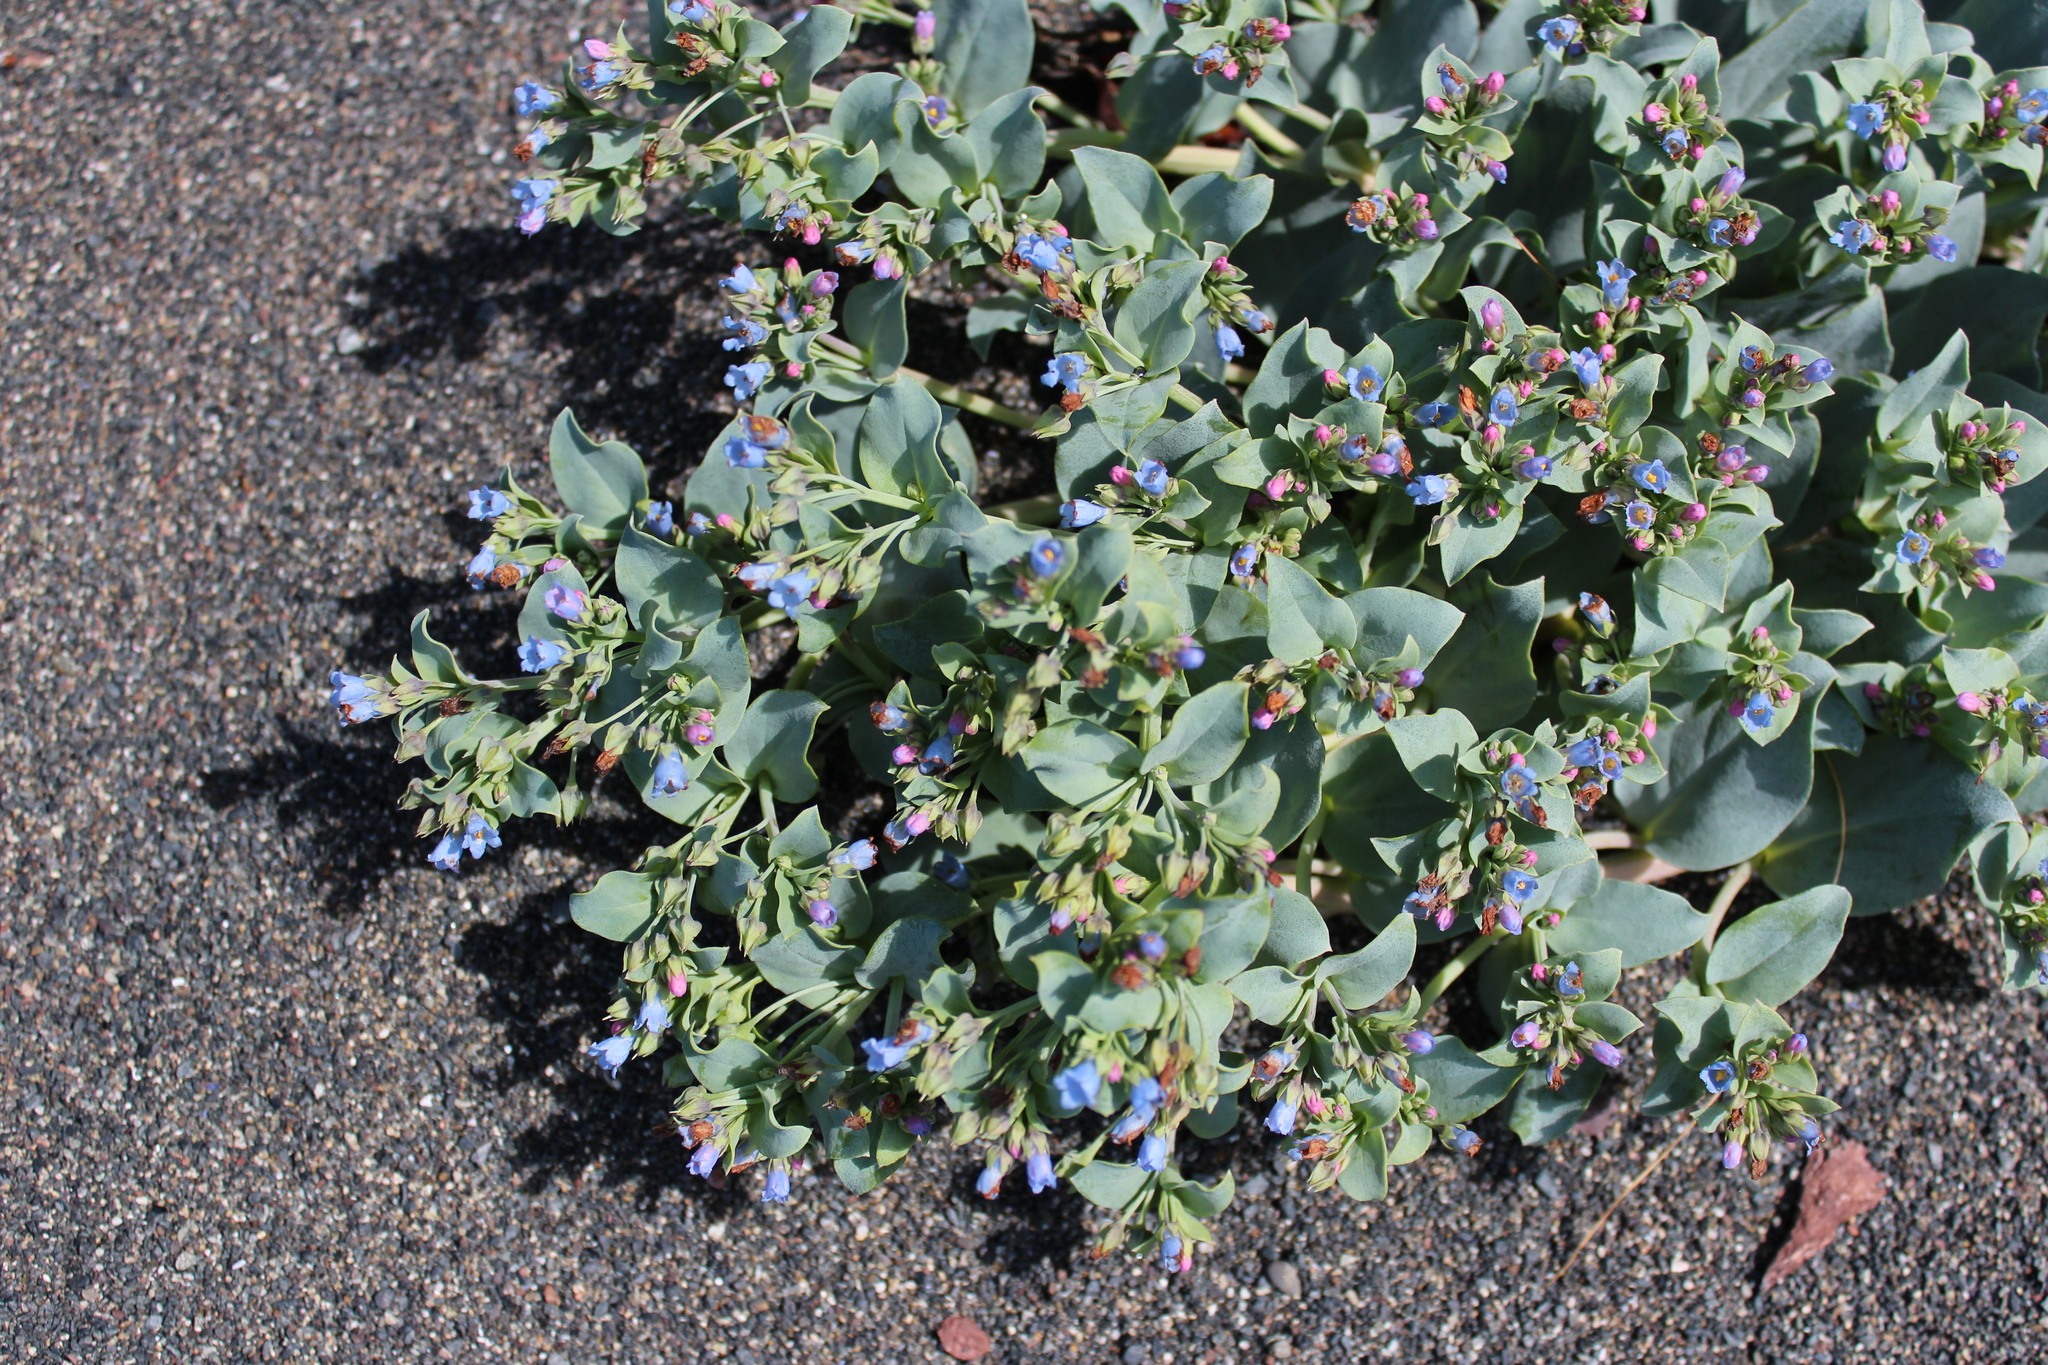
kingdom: Plantae
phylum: Tracheophyta
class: Magnoliopsida
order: Boraginales
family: Boraginaceae
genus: Mertensia
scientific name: Mertensia maritima
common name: Oysterplant
